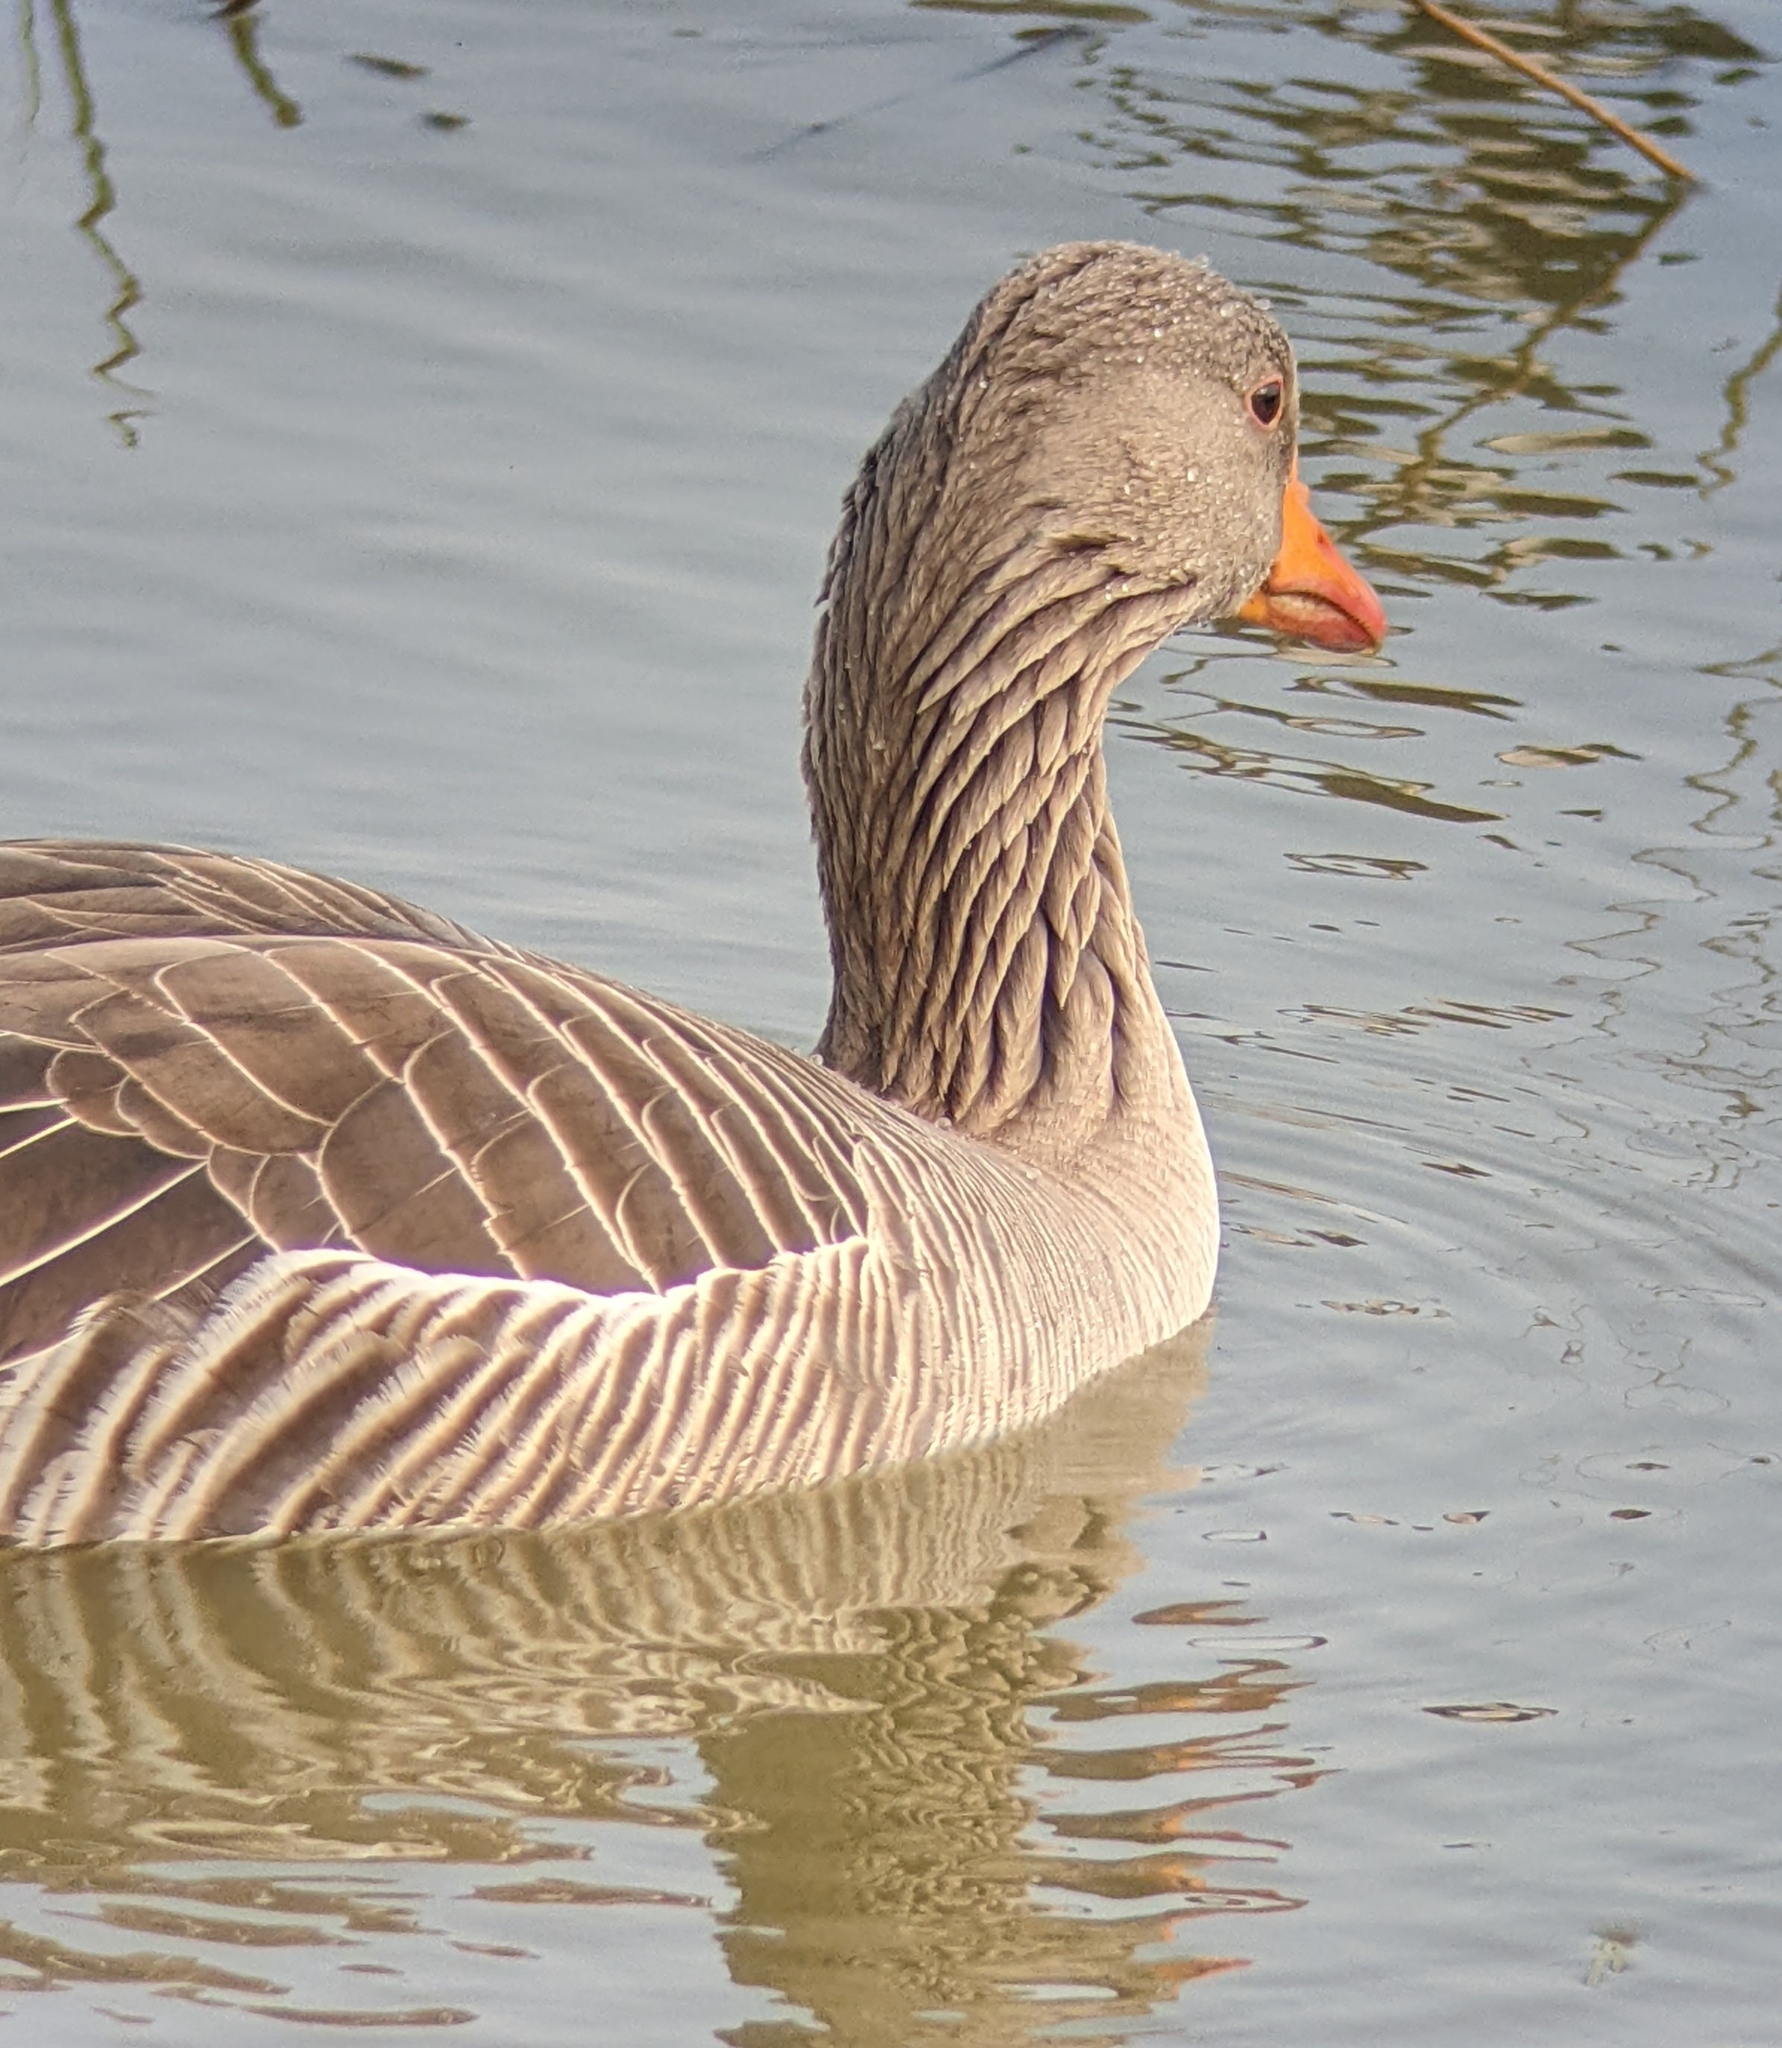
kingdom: Animalia
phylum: Chordata
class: Aves
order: Anseriformes
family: Anatidae
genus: Anser
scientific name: Anser anser
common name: Greylag goose
